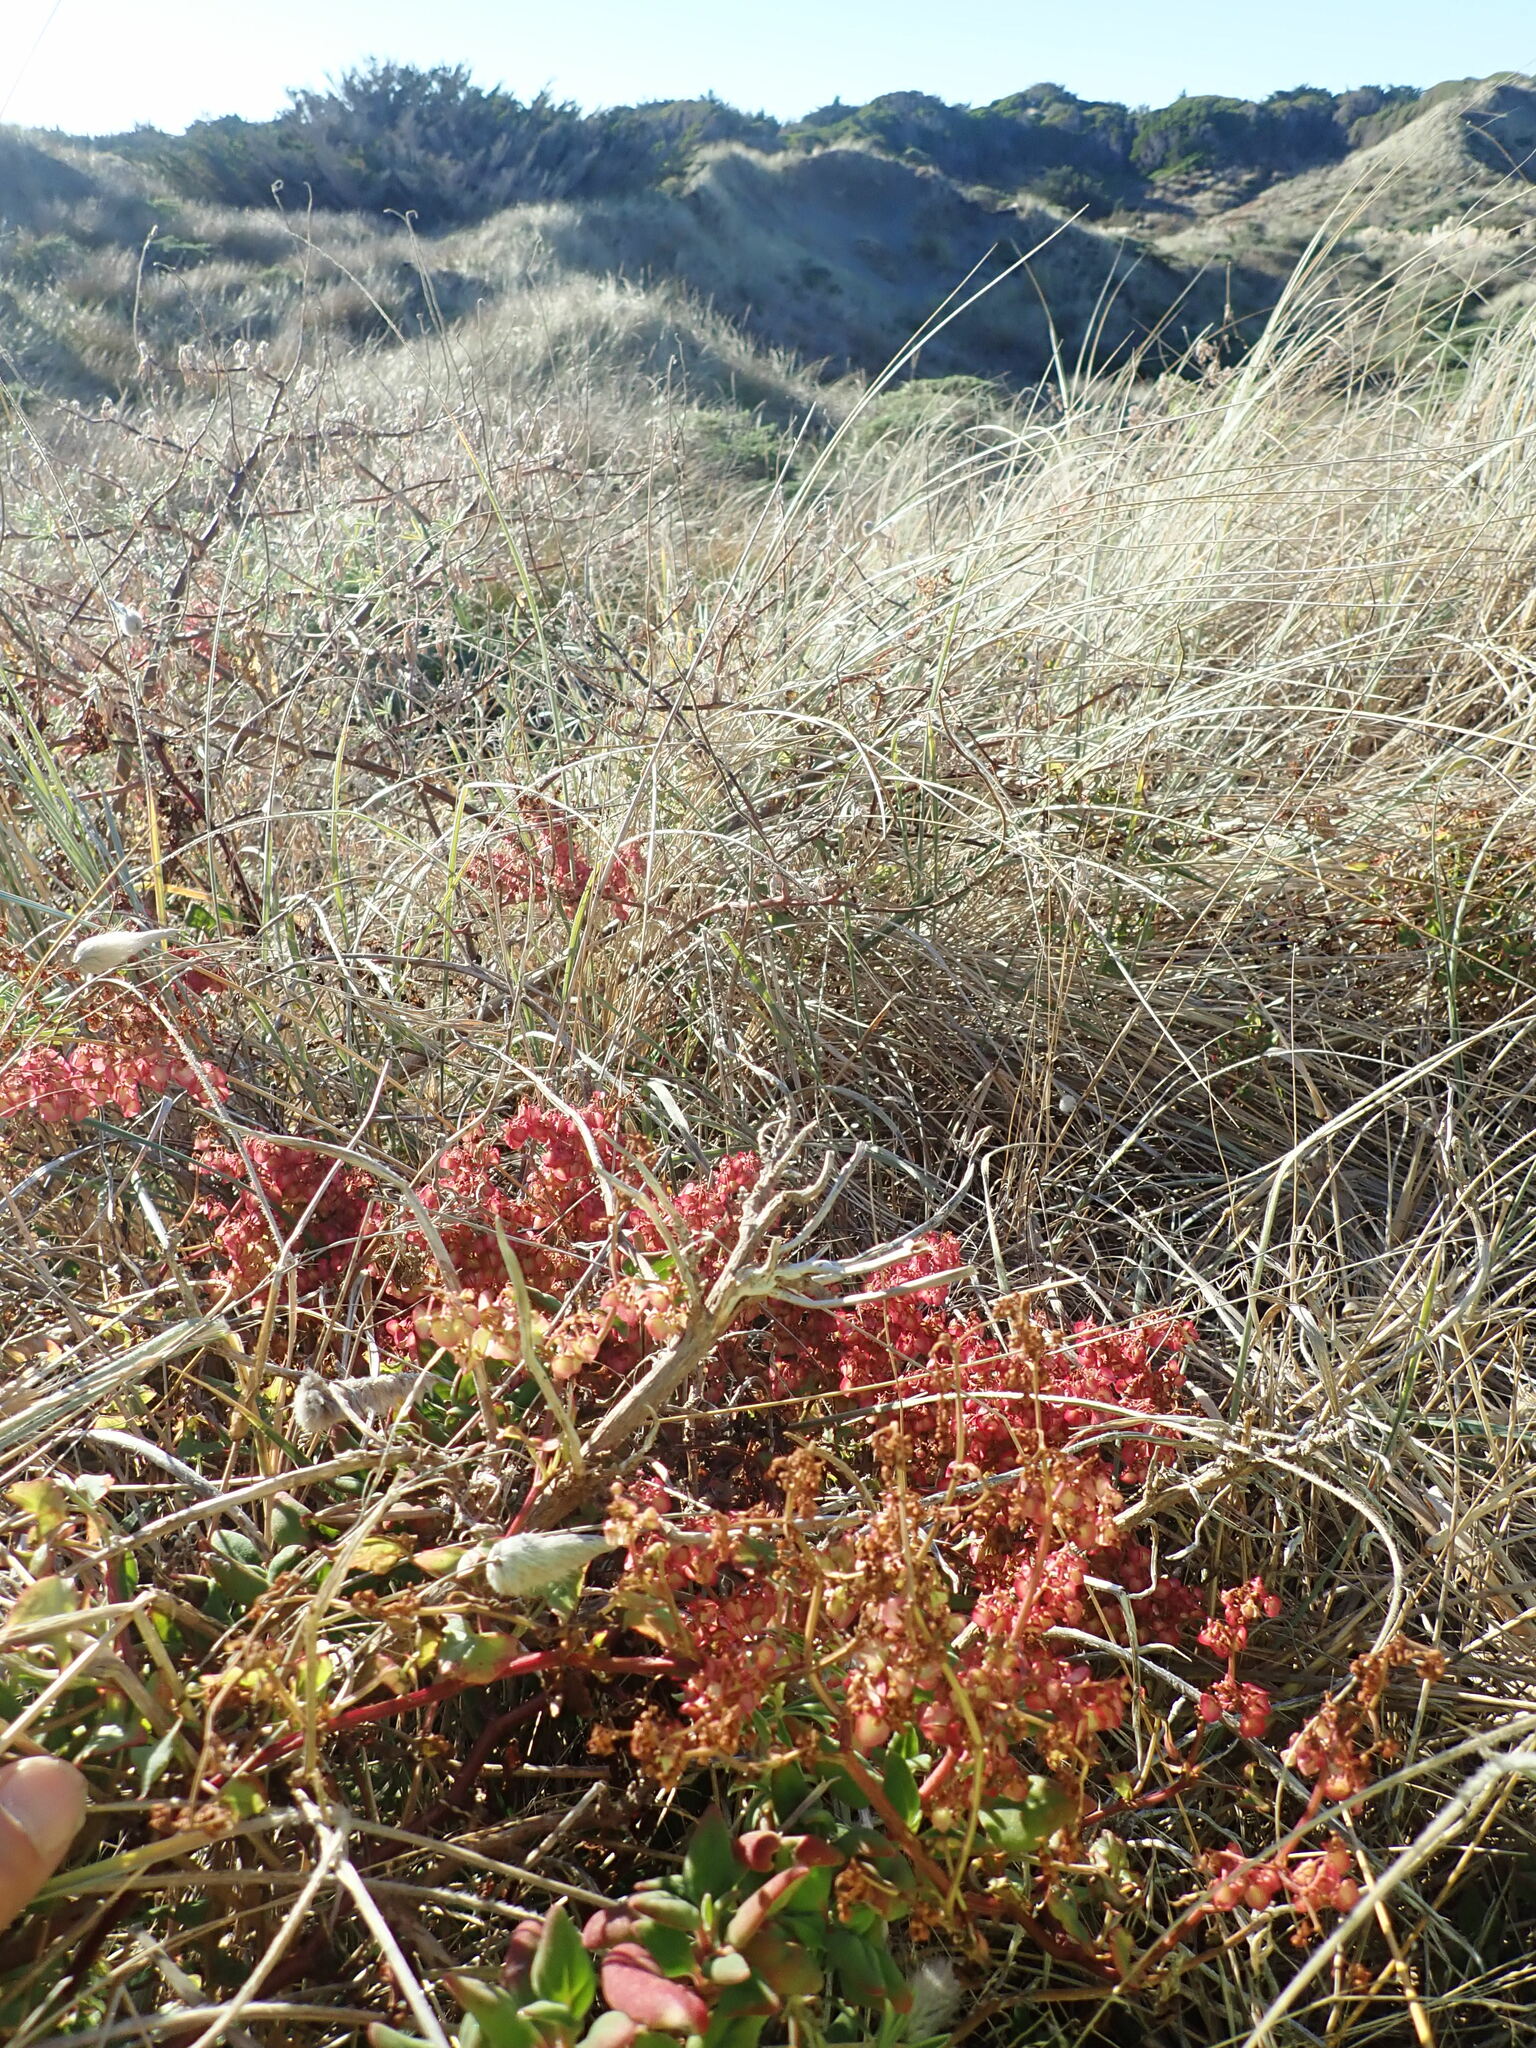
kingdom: Plantae
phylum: Tracheophyta
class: Magnoliopsida
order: Caryophyllales
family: Polygonaceae
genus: Rumex
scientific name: Rumex sagittatus
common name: Climbing dock
